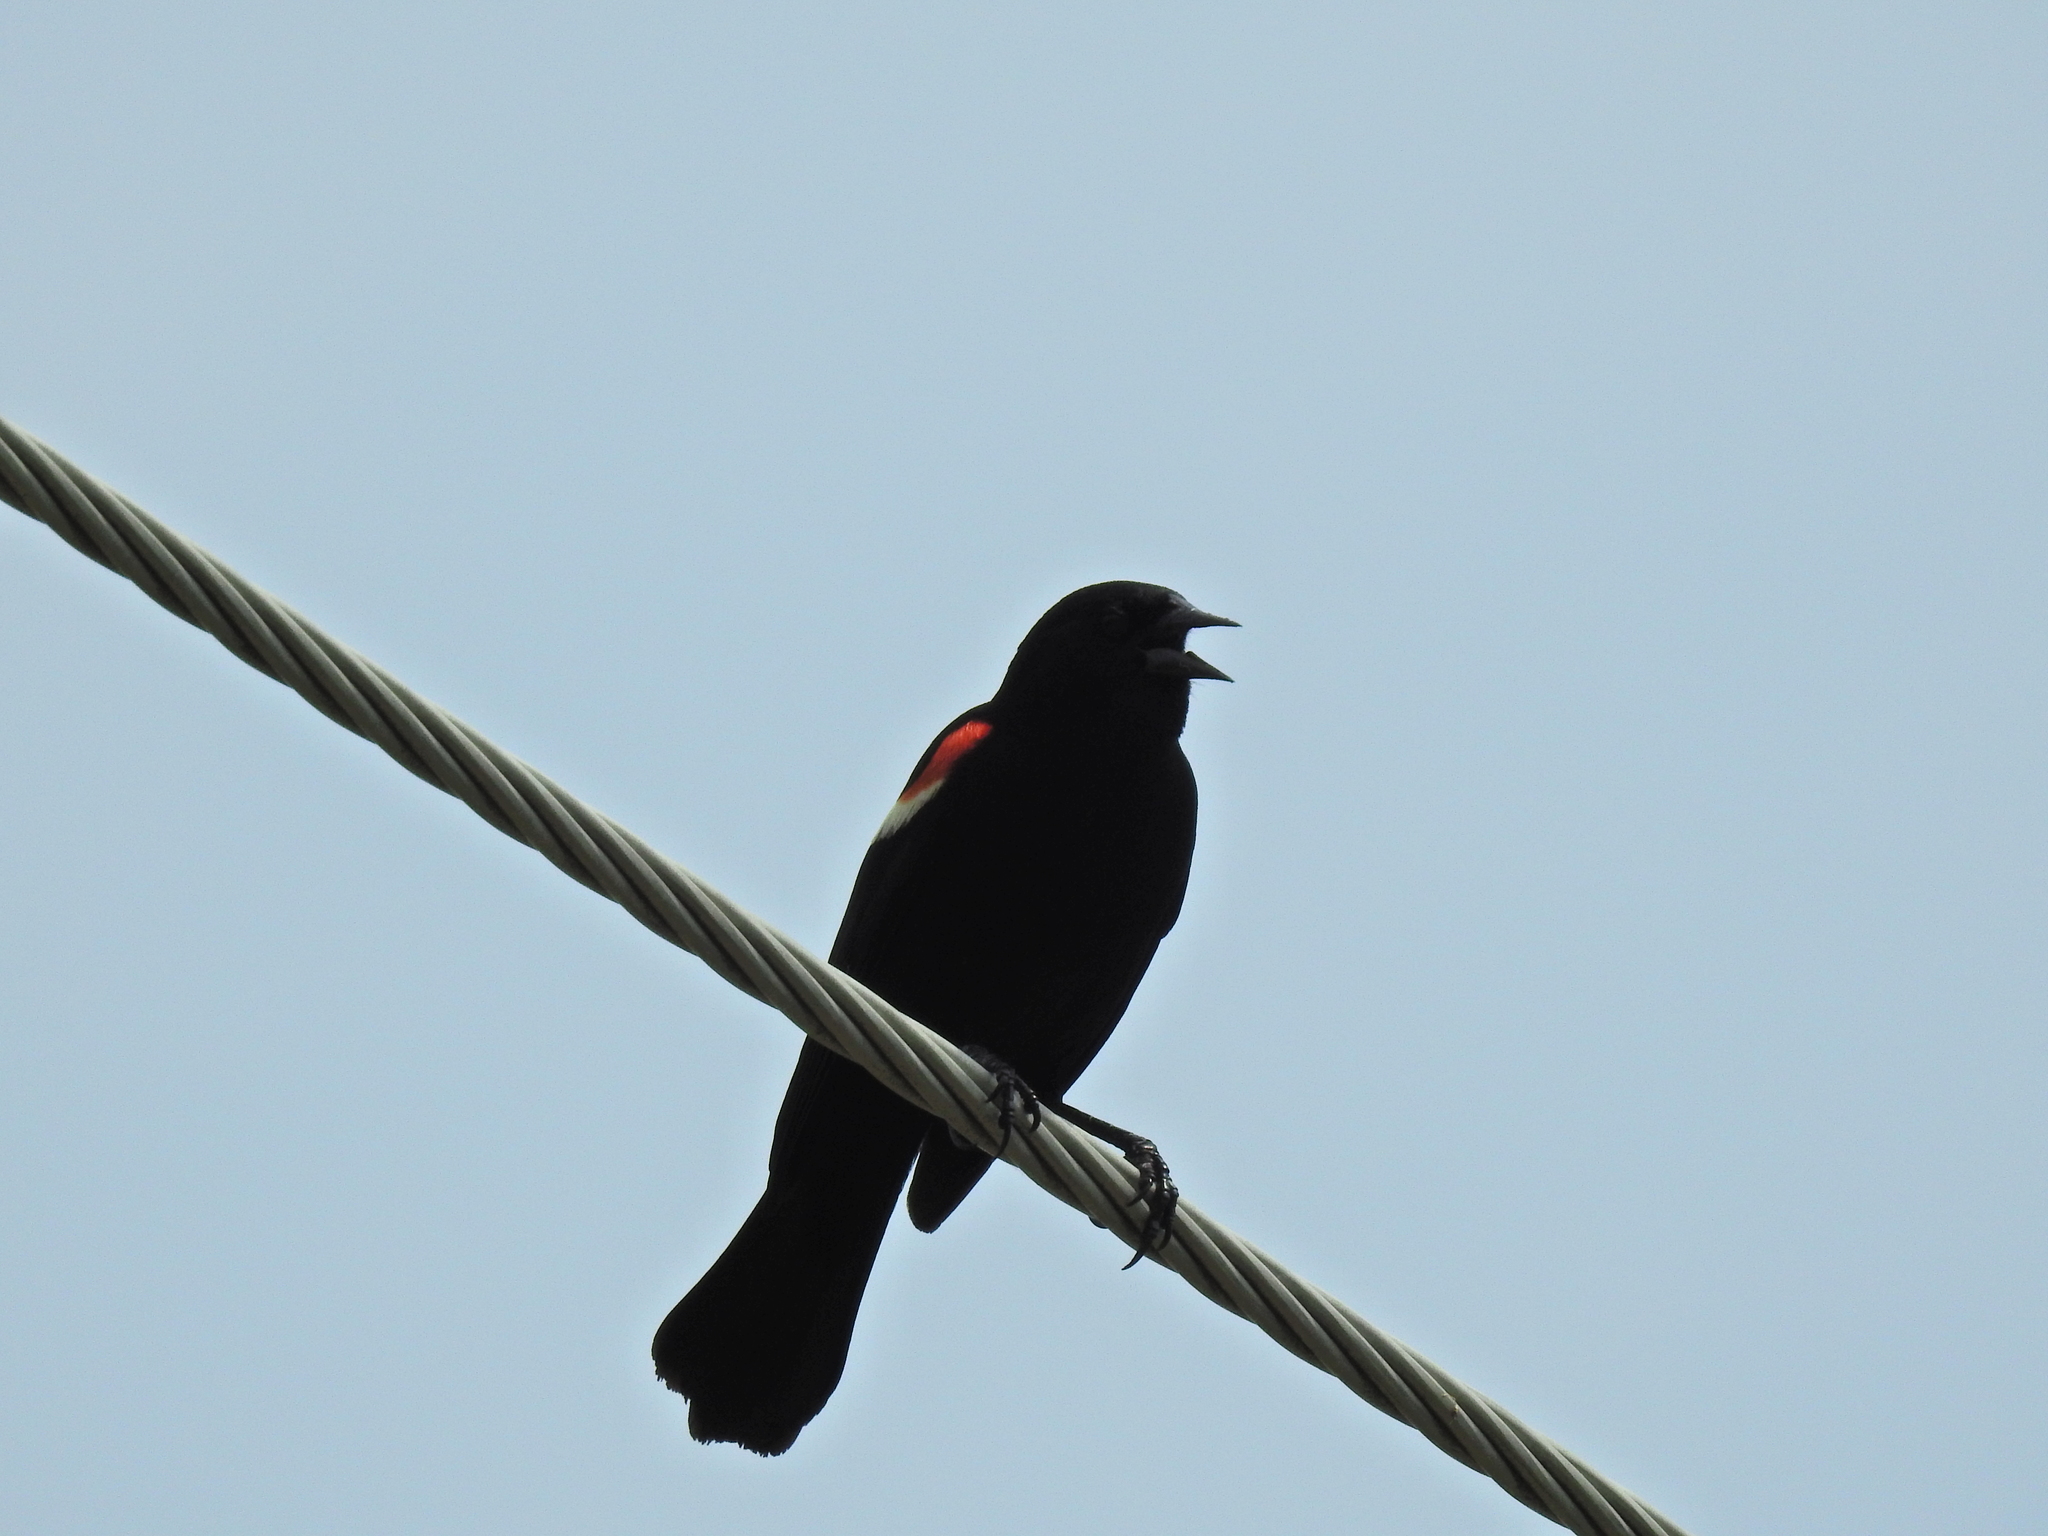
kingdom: Animalia
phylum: Chordata
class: Aves
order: Passeriformes
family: Icteridae
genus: Agelaius
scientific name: Agelaius phoeniceus
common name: Red-winged blackbird
